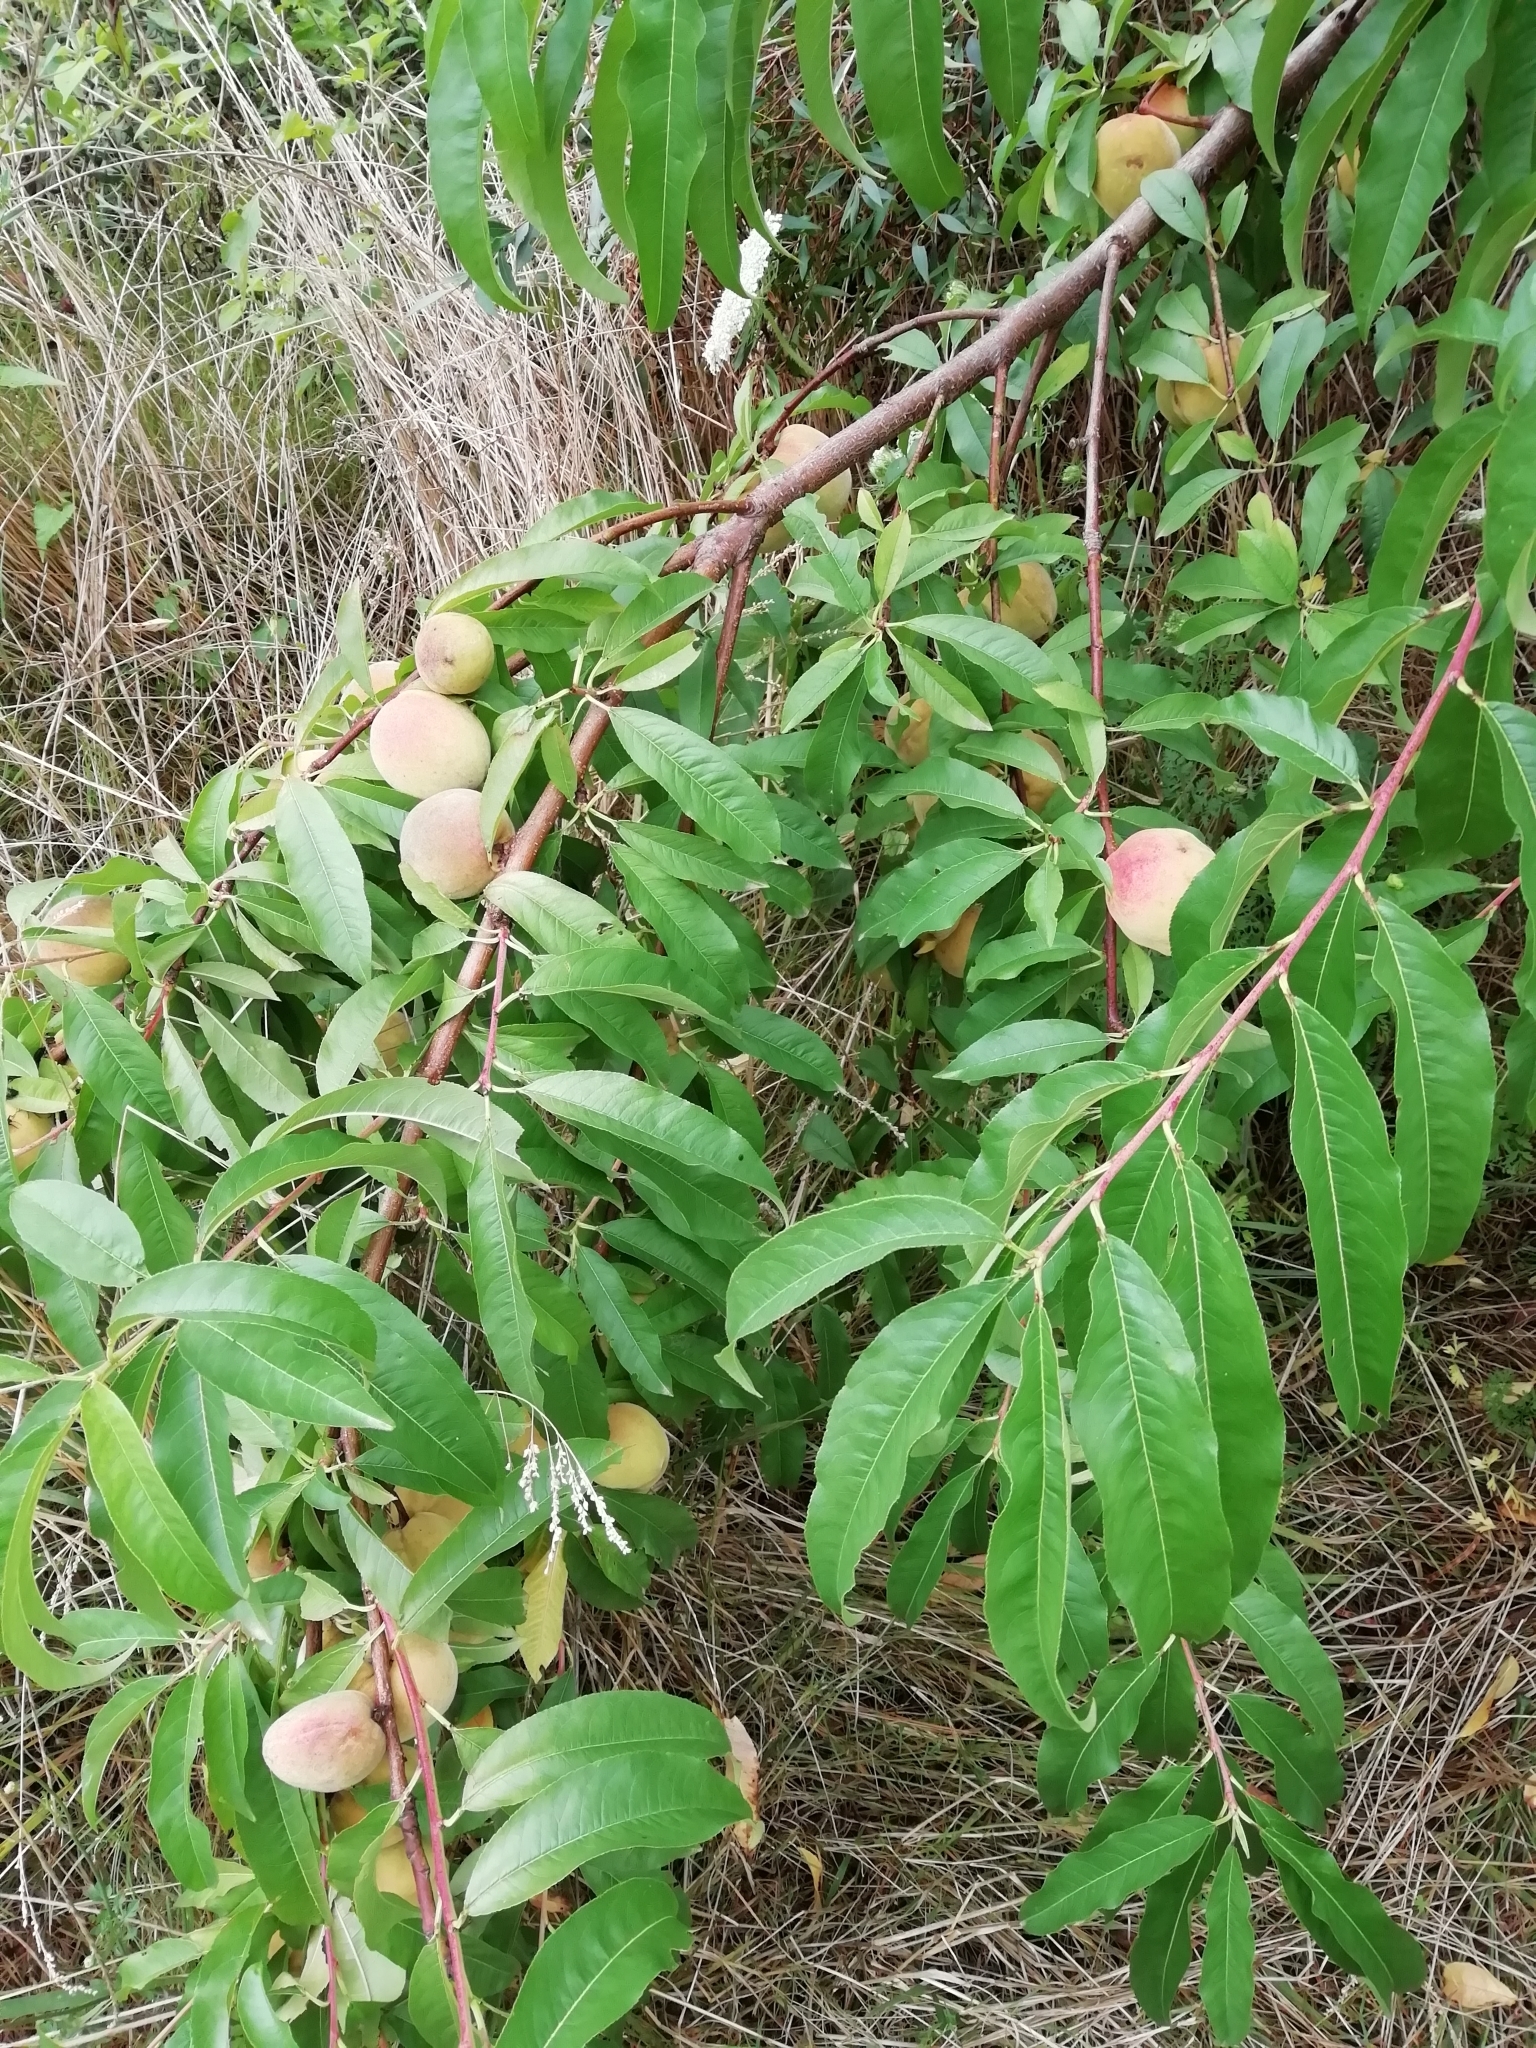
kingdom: Plantae
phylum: Tracheophyta
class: Magnoliopsida
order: Rosales
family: Rosaceae
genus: Prunus
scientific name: Prunus persica
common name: Peach
